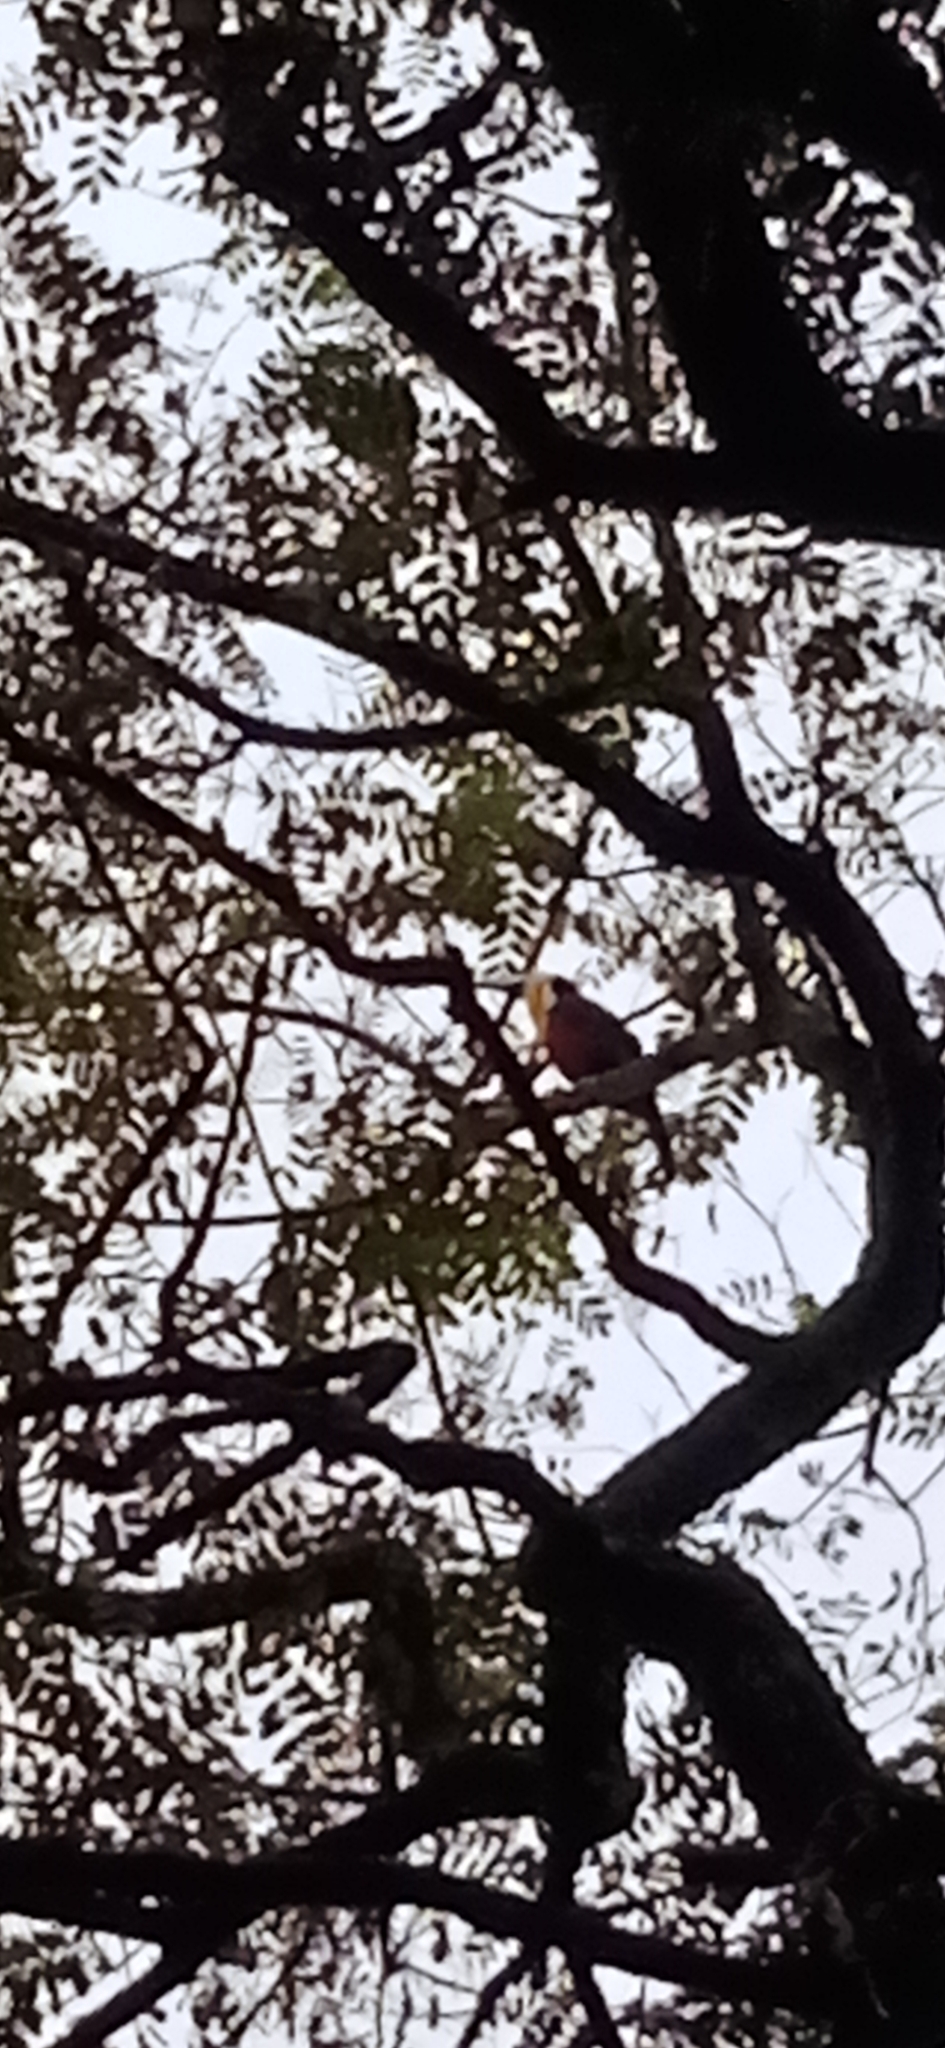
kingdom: Animalia
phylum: Chordata
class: Aves
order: Piciformes
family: Ramphastidae
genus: Ramphastos
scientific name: Ramphastos dicolorus
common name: Green-billed toucan
